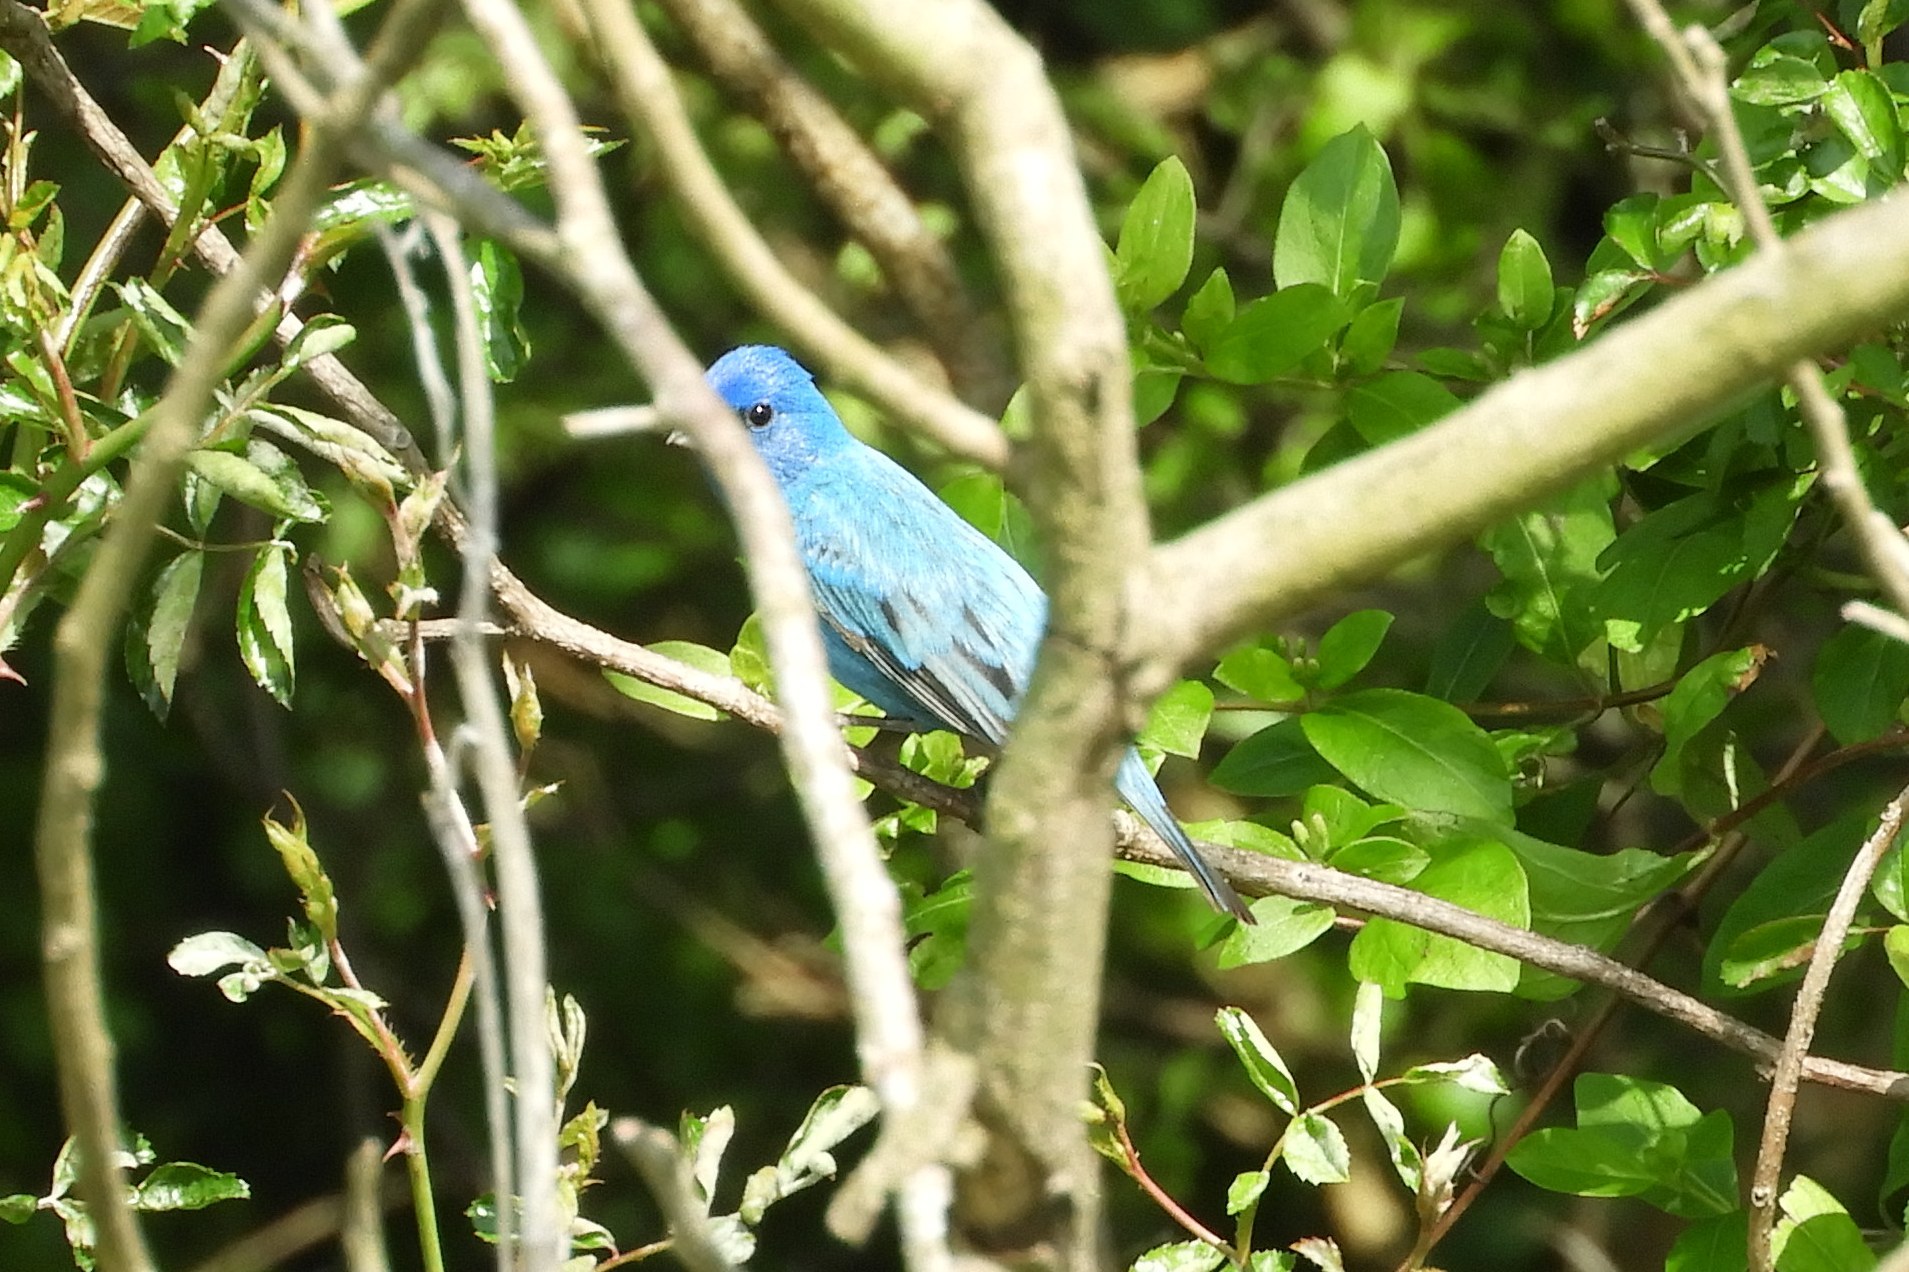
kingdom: Animalia
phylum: Chordata
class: Aves
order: Passeriformes
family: Cardinalidae
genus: Passerina
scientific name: Passerina cyanea
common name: Indigo bunting
